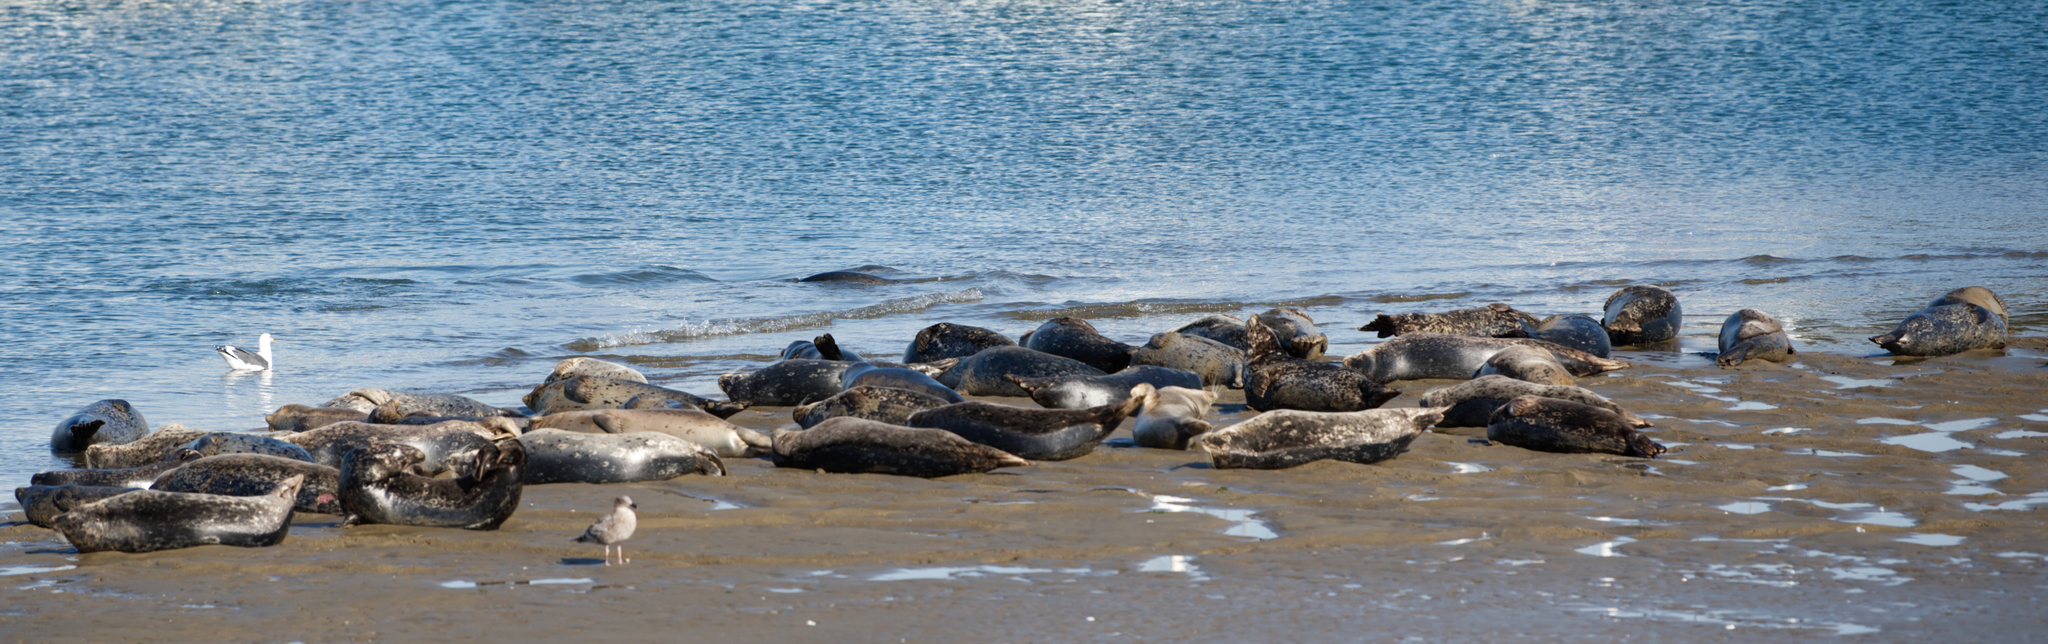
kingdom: Animalia
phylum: Chordata
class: Mammalia
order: Carnivora
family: Phocidae
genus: Phoca
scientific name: Phoca vitulina
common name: Harbor seal
